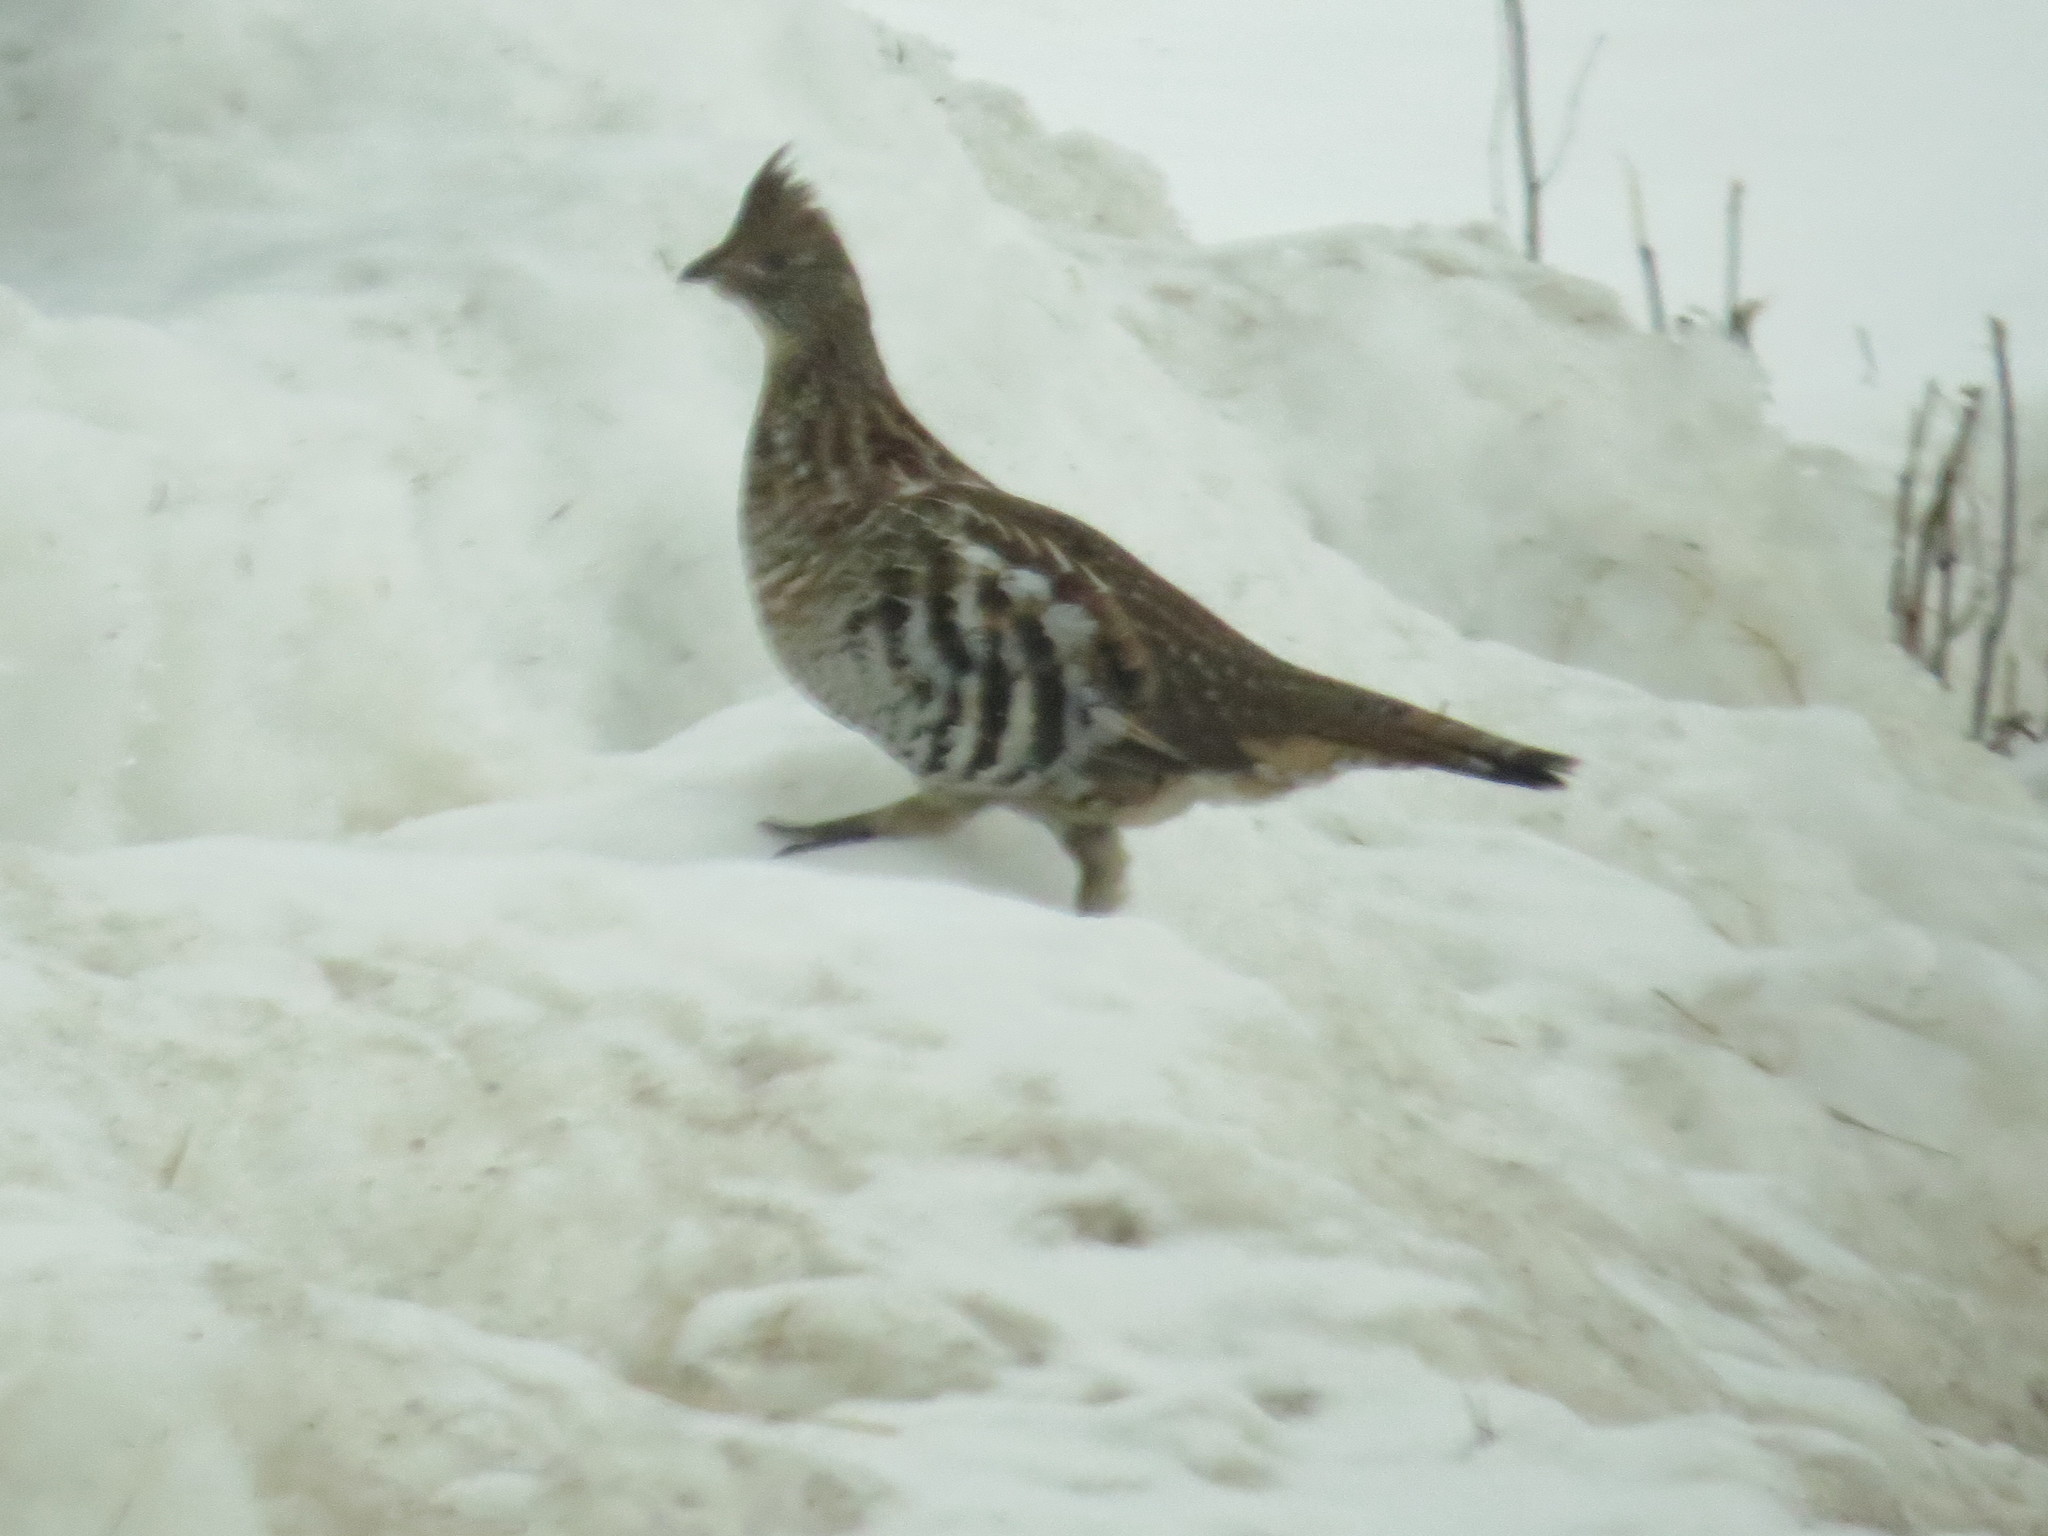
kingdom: Animalia
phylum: Chordata
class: Aves
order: Galliformes
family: Phasianidae
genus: Bonasa
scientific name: Bonasa umbellus
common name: Ruffed grouse
